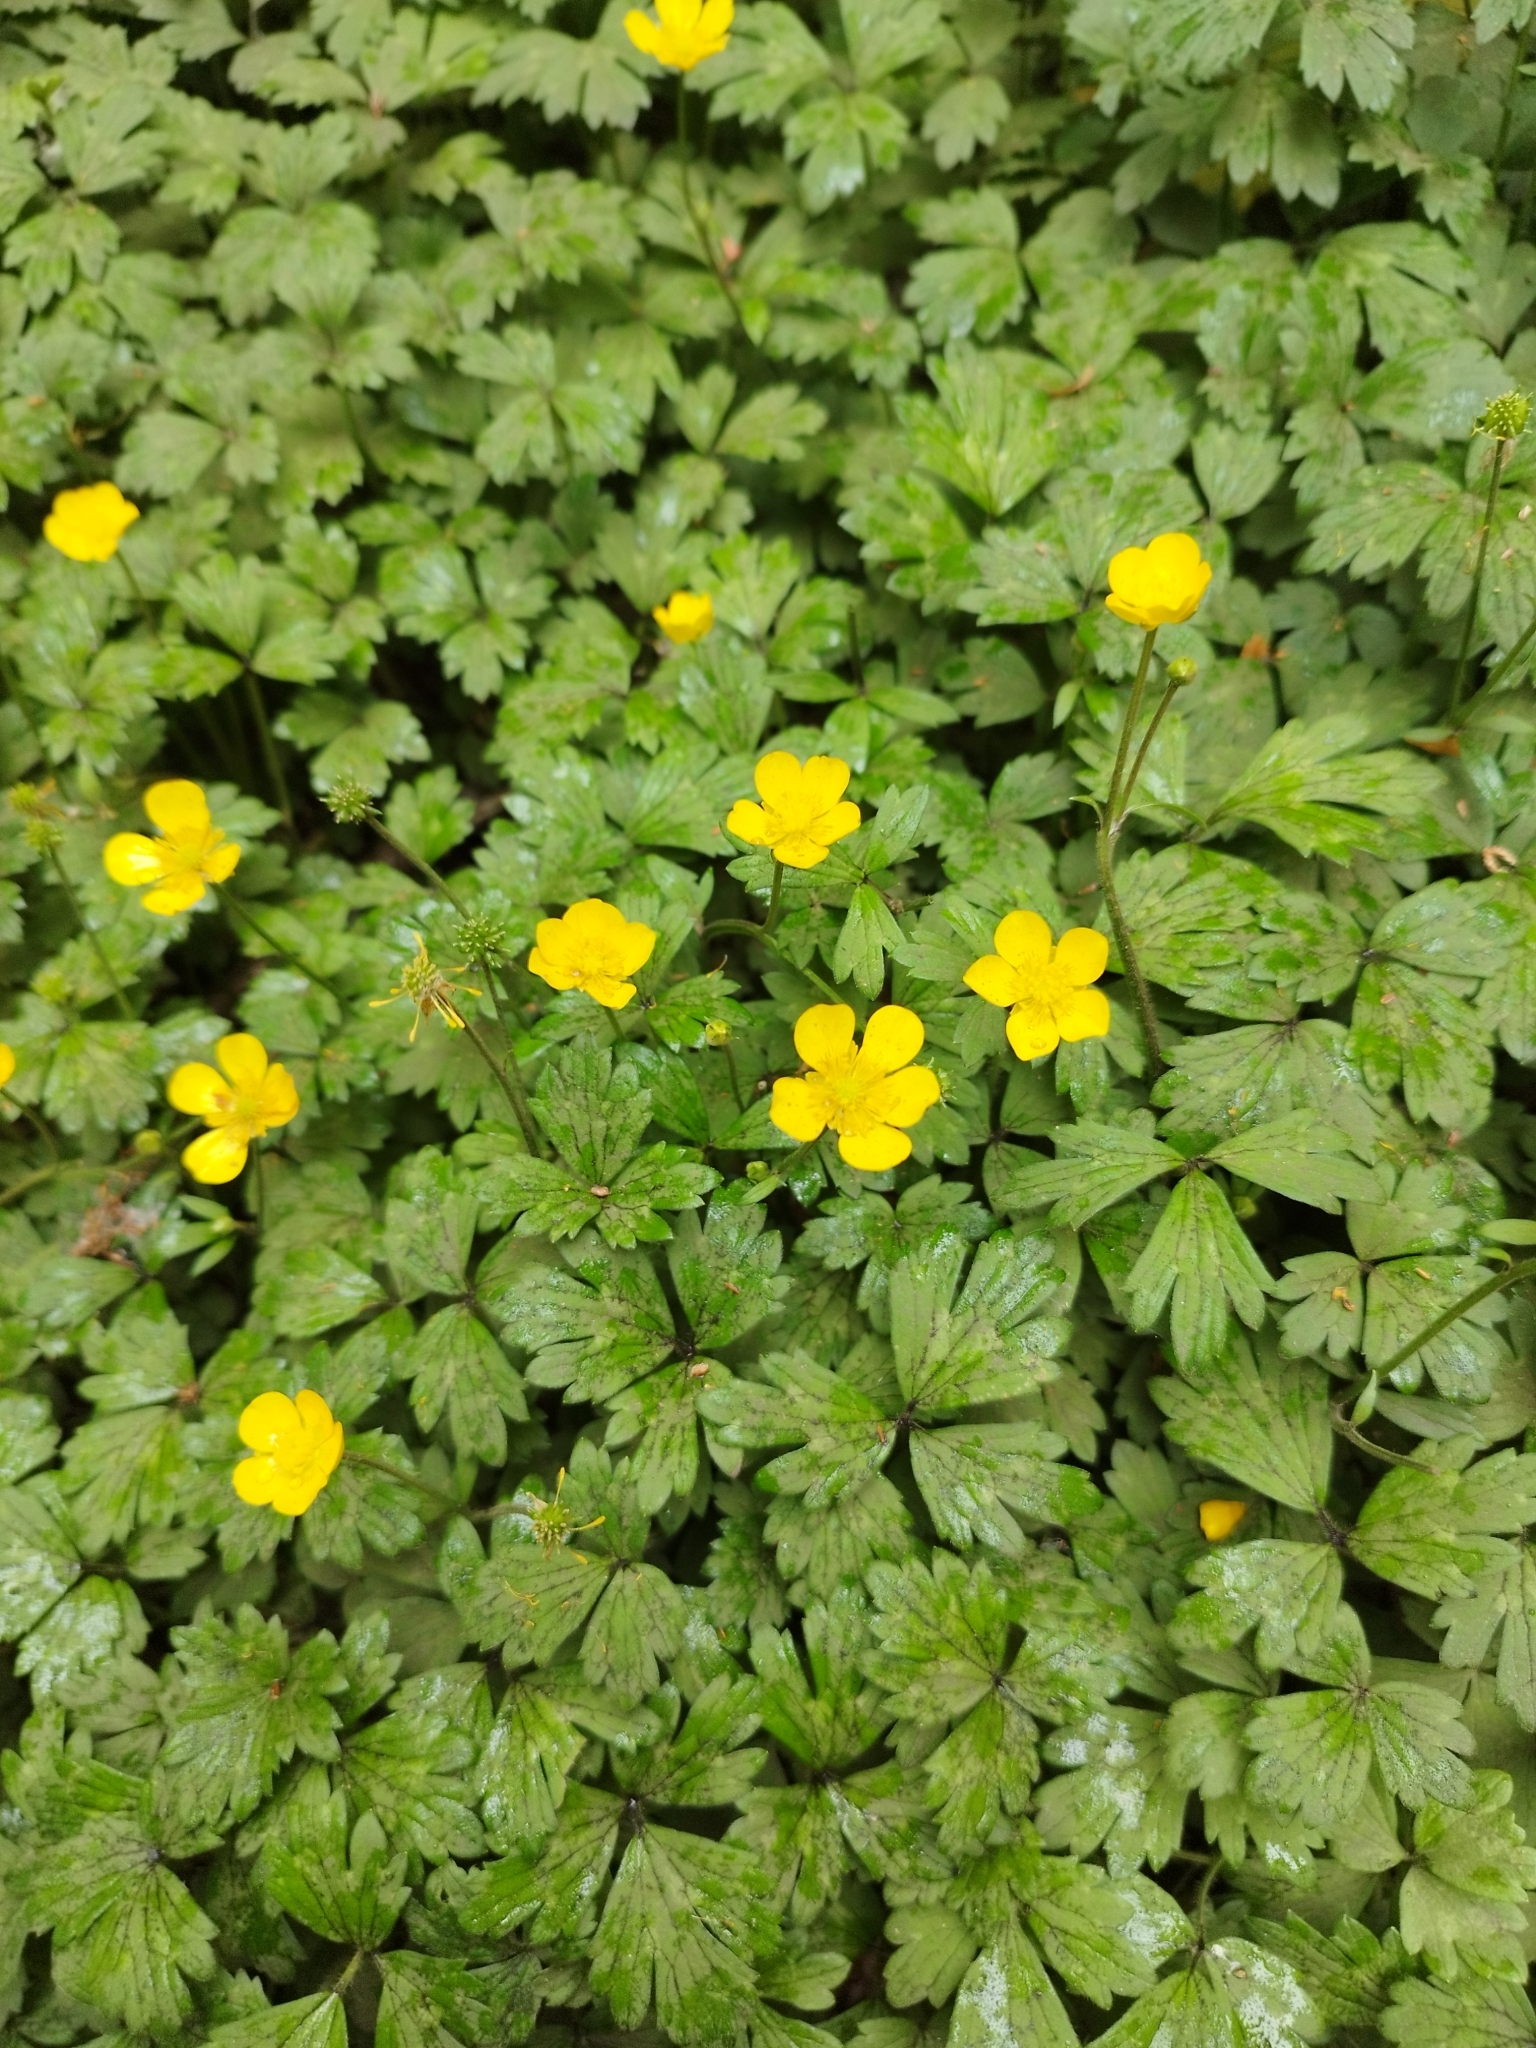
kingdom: Plantae
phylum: Tracheophyta
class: Magnoliopsida
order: Ranunculales
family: Ranunculaceae
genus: Ranunculus
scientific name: Ranunculus repens
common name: Creeping buttercup
